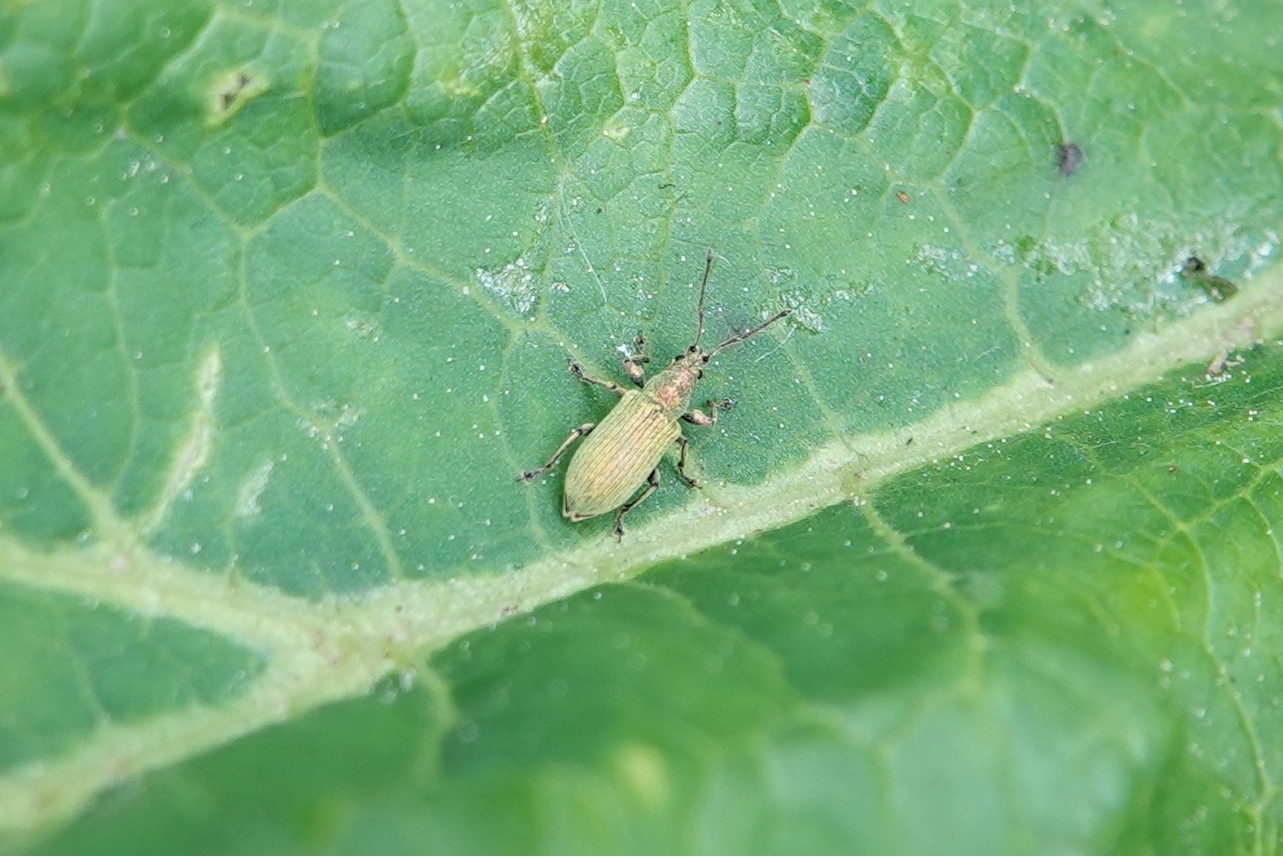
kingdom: Animalia
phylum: Arthropoda
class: Insecta
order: Coleoptera
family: Curculionidae
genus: Phyllobius
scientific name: Phyllobius maculicornis
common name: Green leaf weevil
